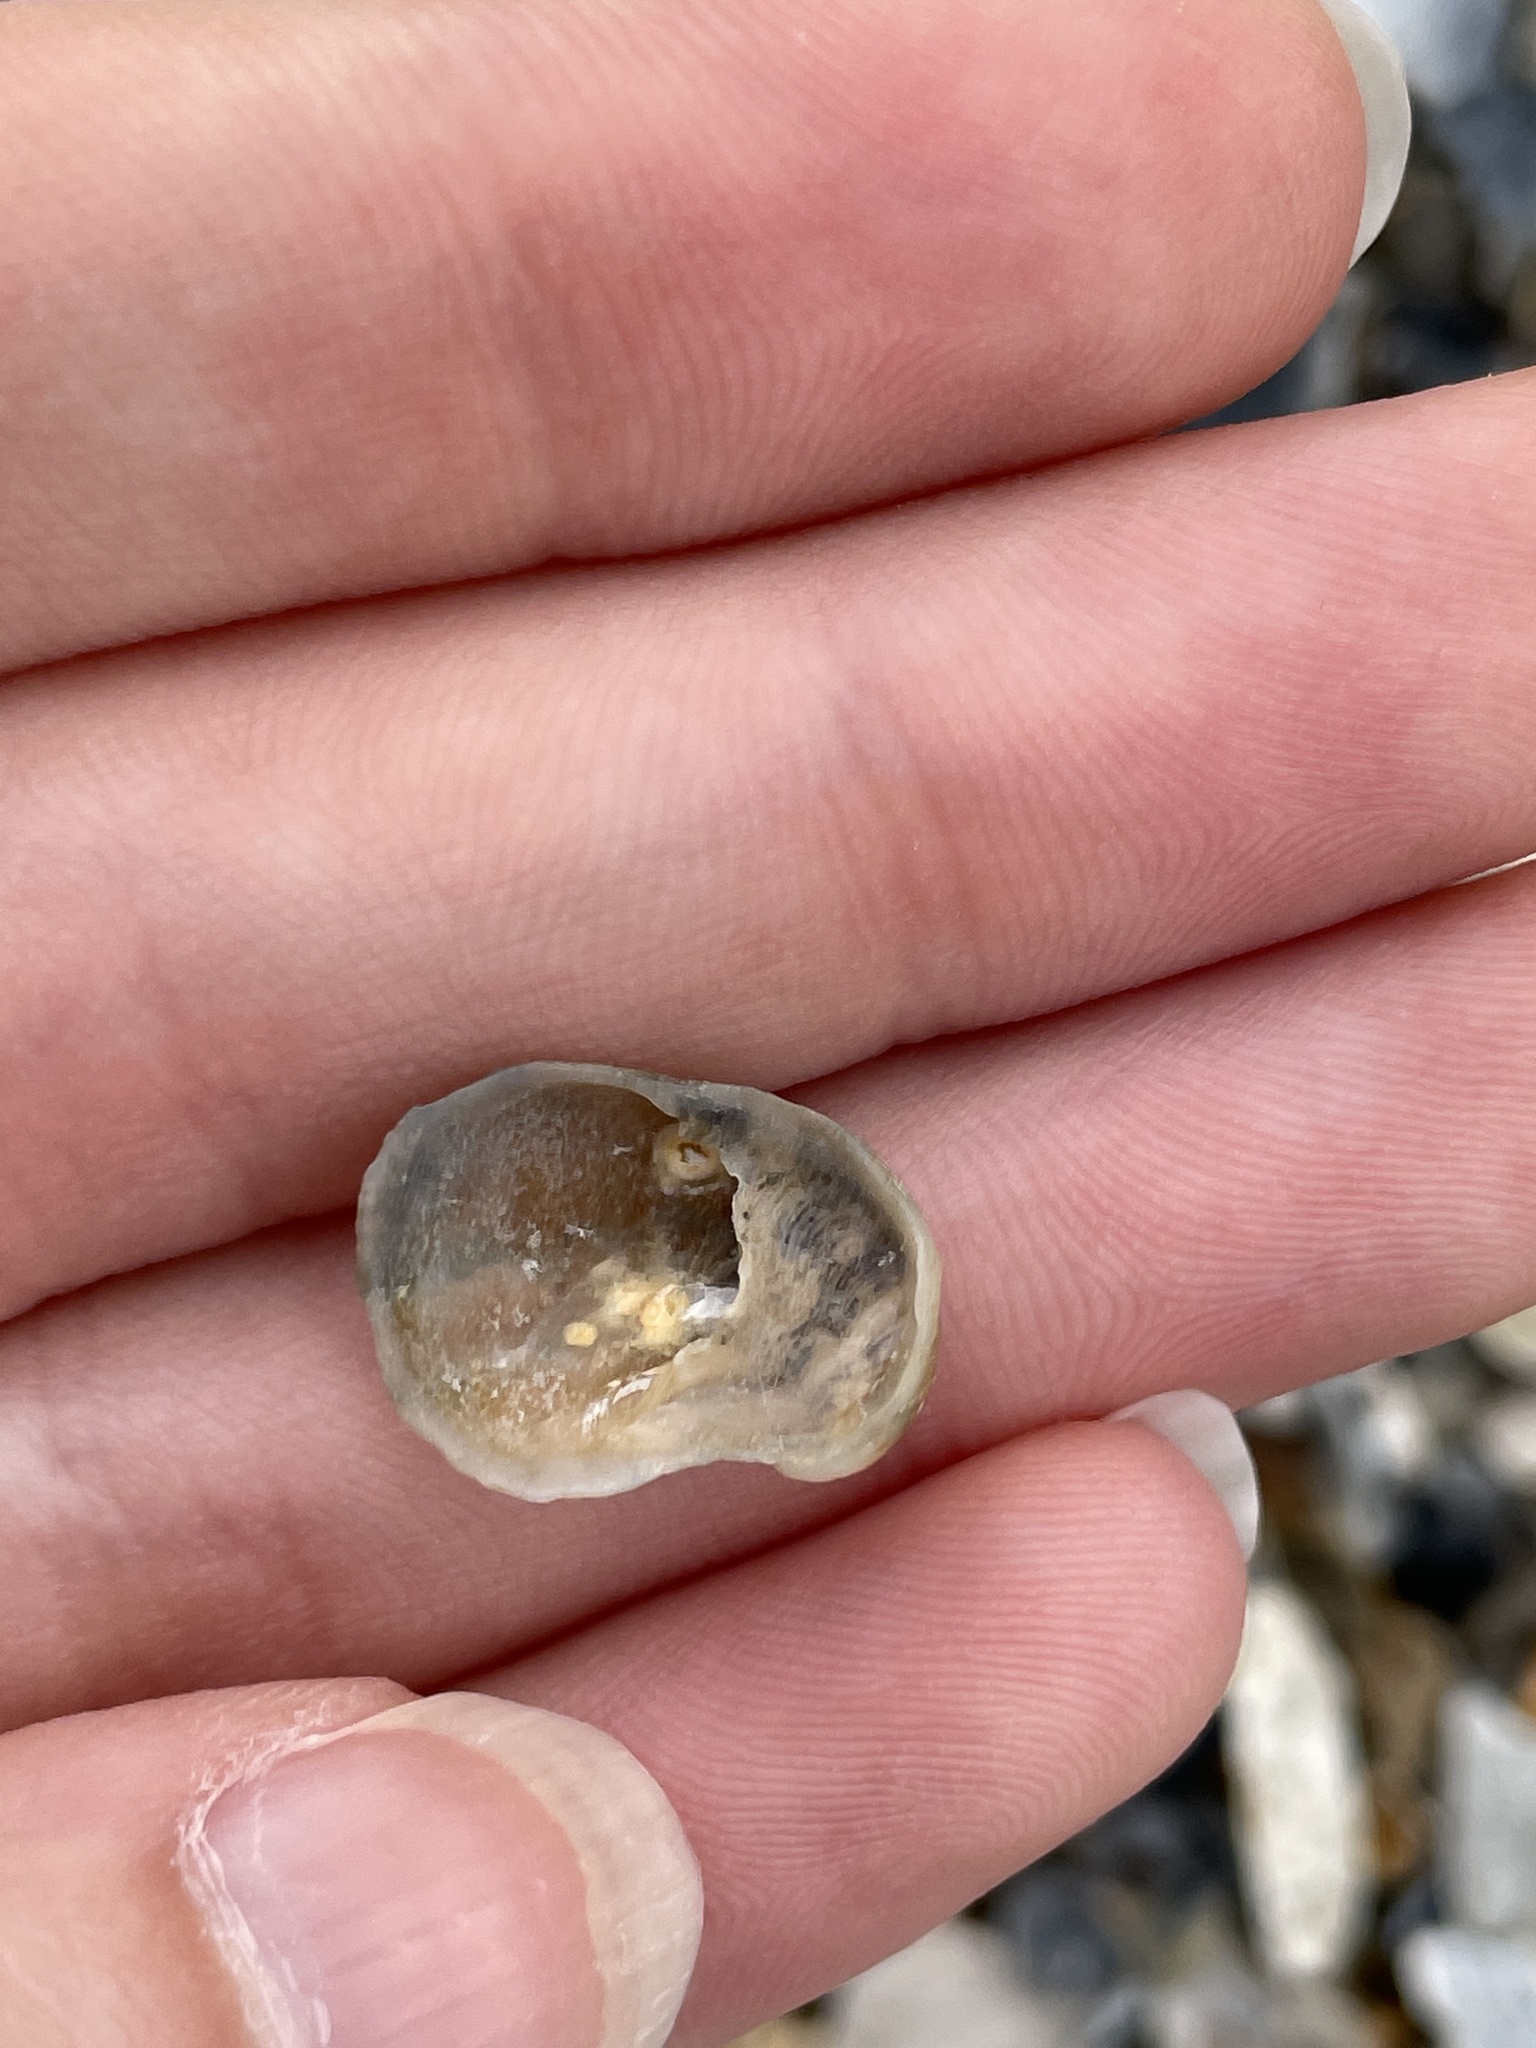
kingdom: Animalia
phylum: Mollusca
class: Gastropoda
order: Littorinimorpha
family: Calyptraeidae
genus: Bostrycapulus
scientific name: Bostrycapulus aculeatus
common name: Spiny slippersnail
